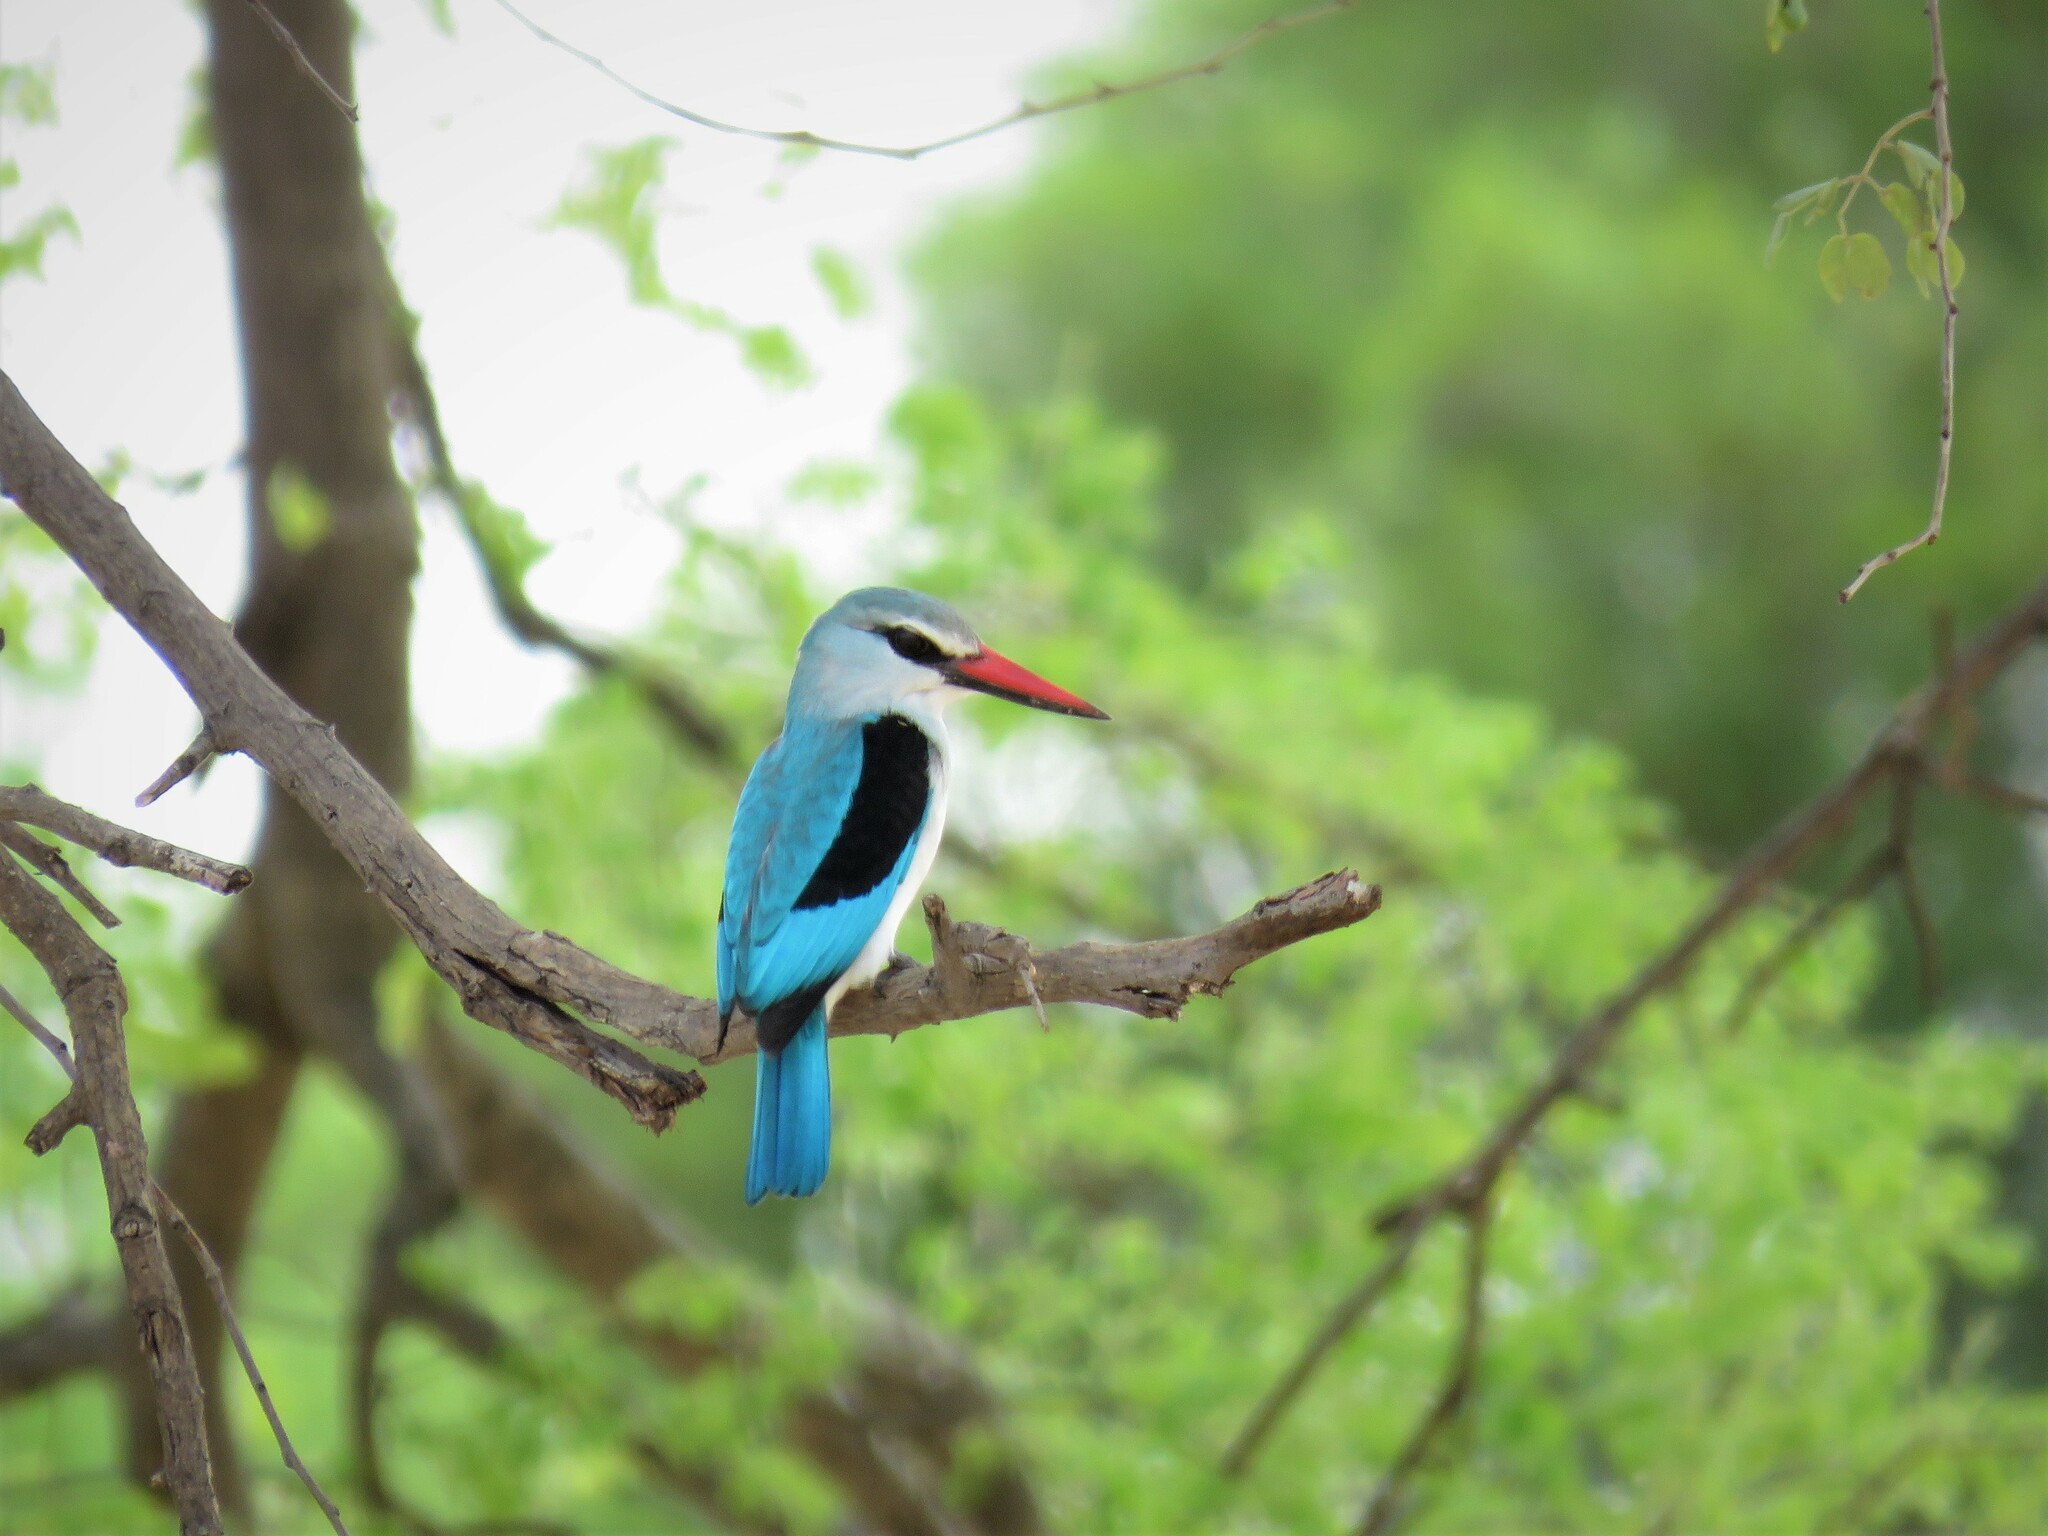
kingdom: Animalia
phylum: Chordata
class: Aves
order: Coraciiformes
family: Alcedinidae
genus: Halcyon
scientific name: Halcyon senegalensis
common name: Woodland kingfisher
